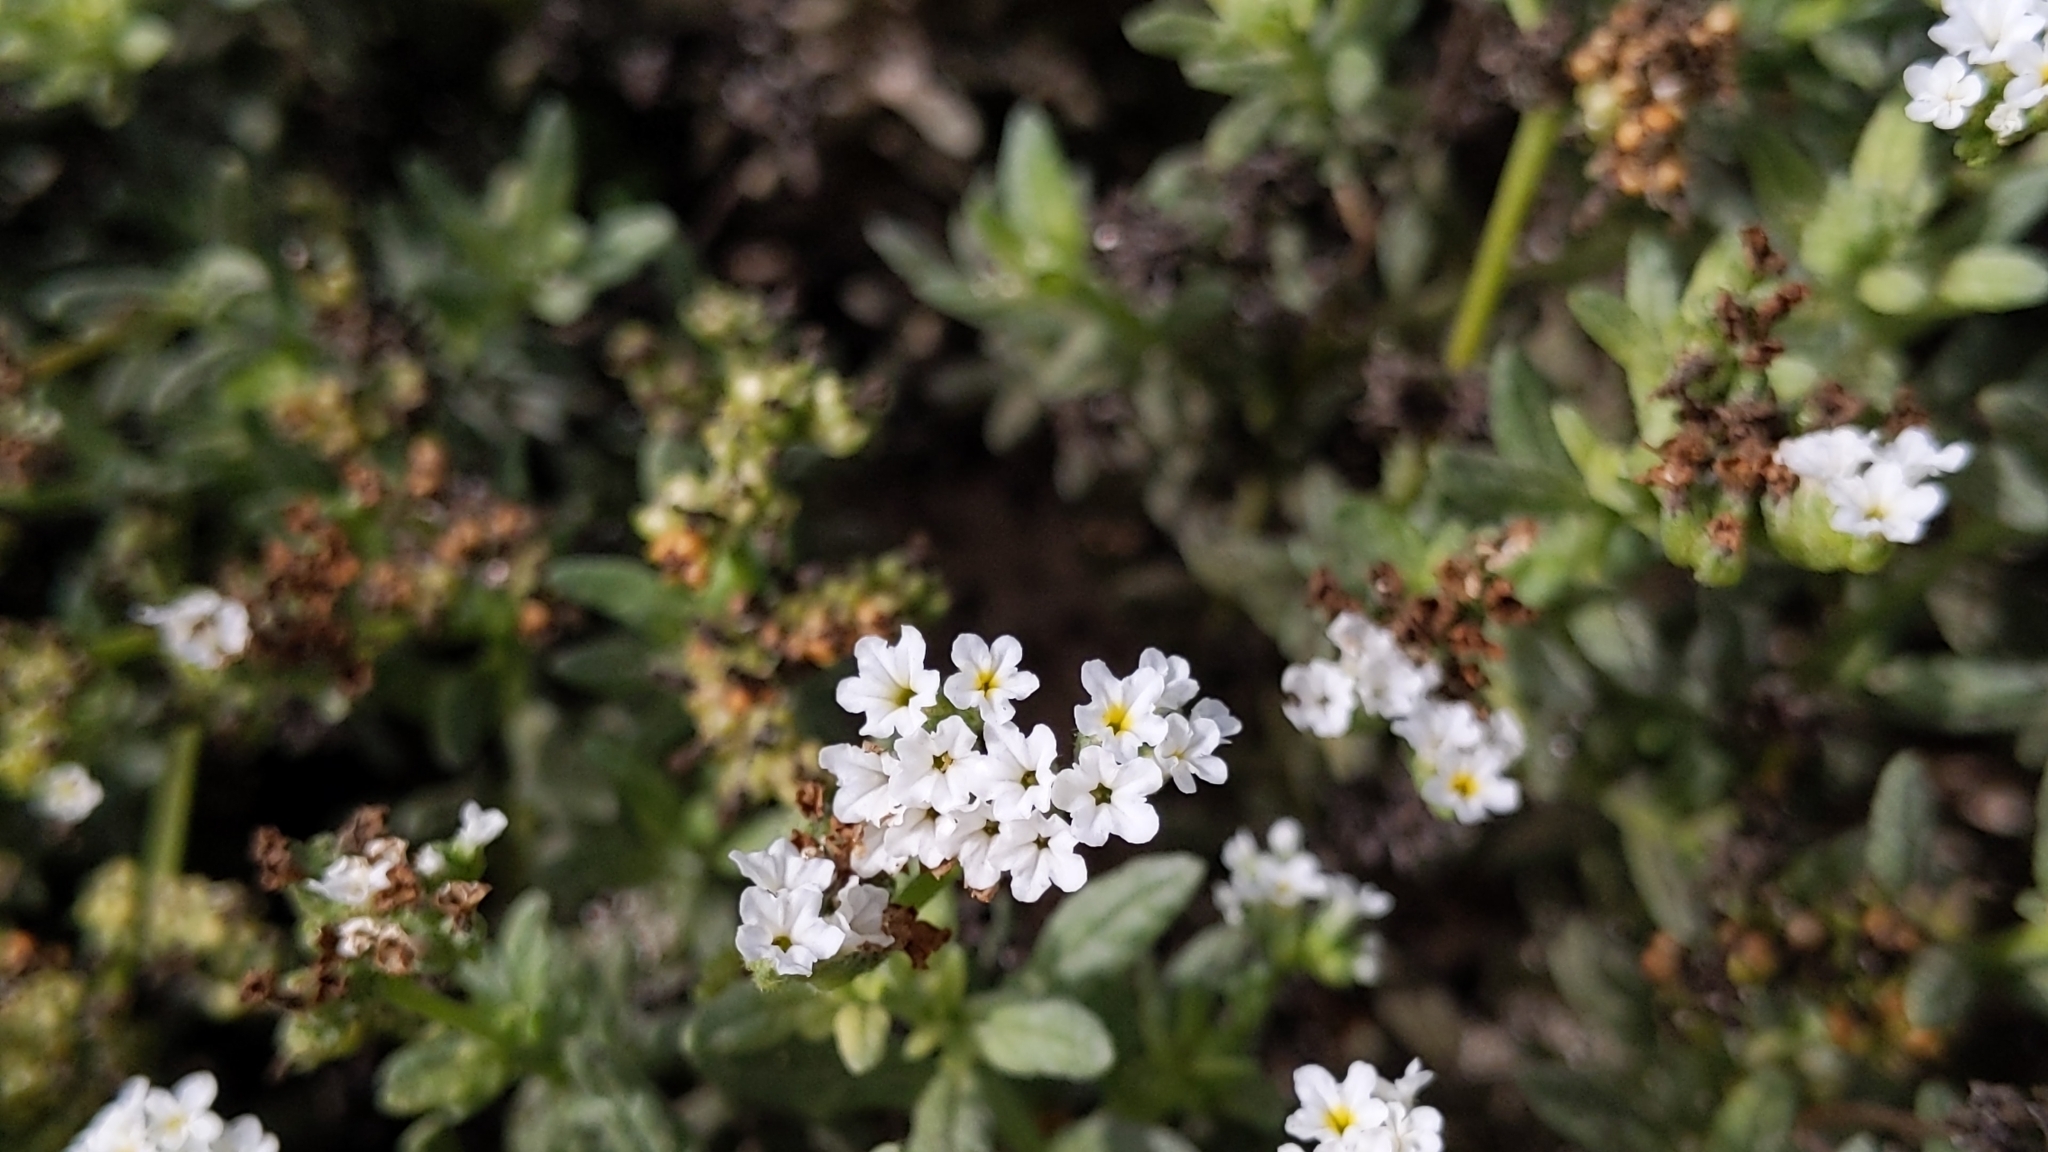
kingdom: Plantae
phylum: Tracheophyta
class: Magnoliopsida
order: Boraginales
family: Heliotropiaceae
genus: Heliotropium
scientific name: Heliotropium ramosissimum
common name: Wavy heliotrope
